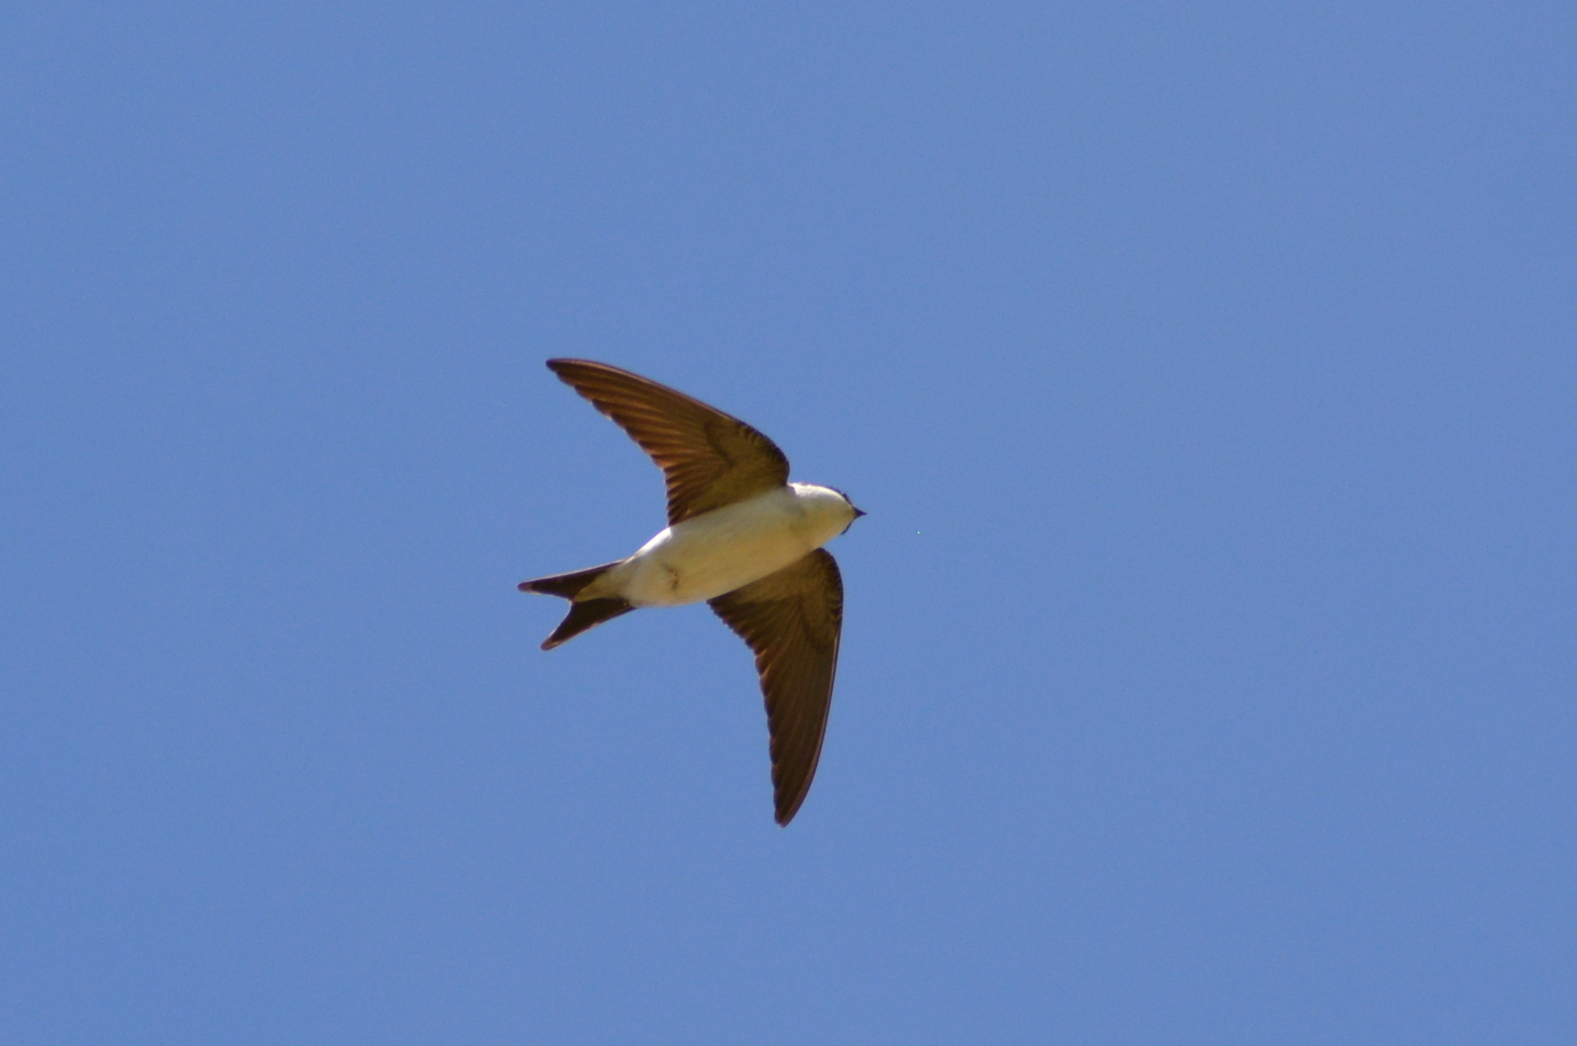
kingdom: Animalia
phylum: Chordata
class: Aves
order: Passeriformes
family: Hirundinidae
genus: Delichon
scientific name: Delichon urbicum
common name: Common house martin
